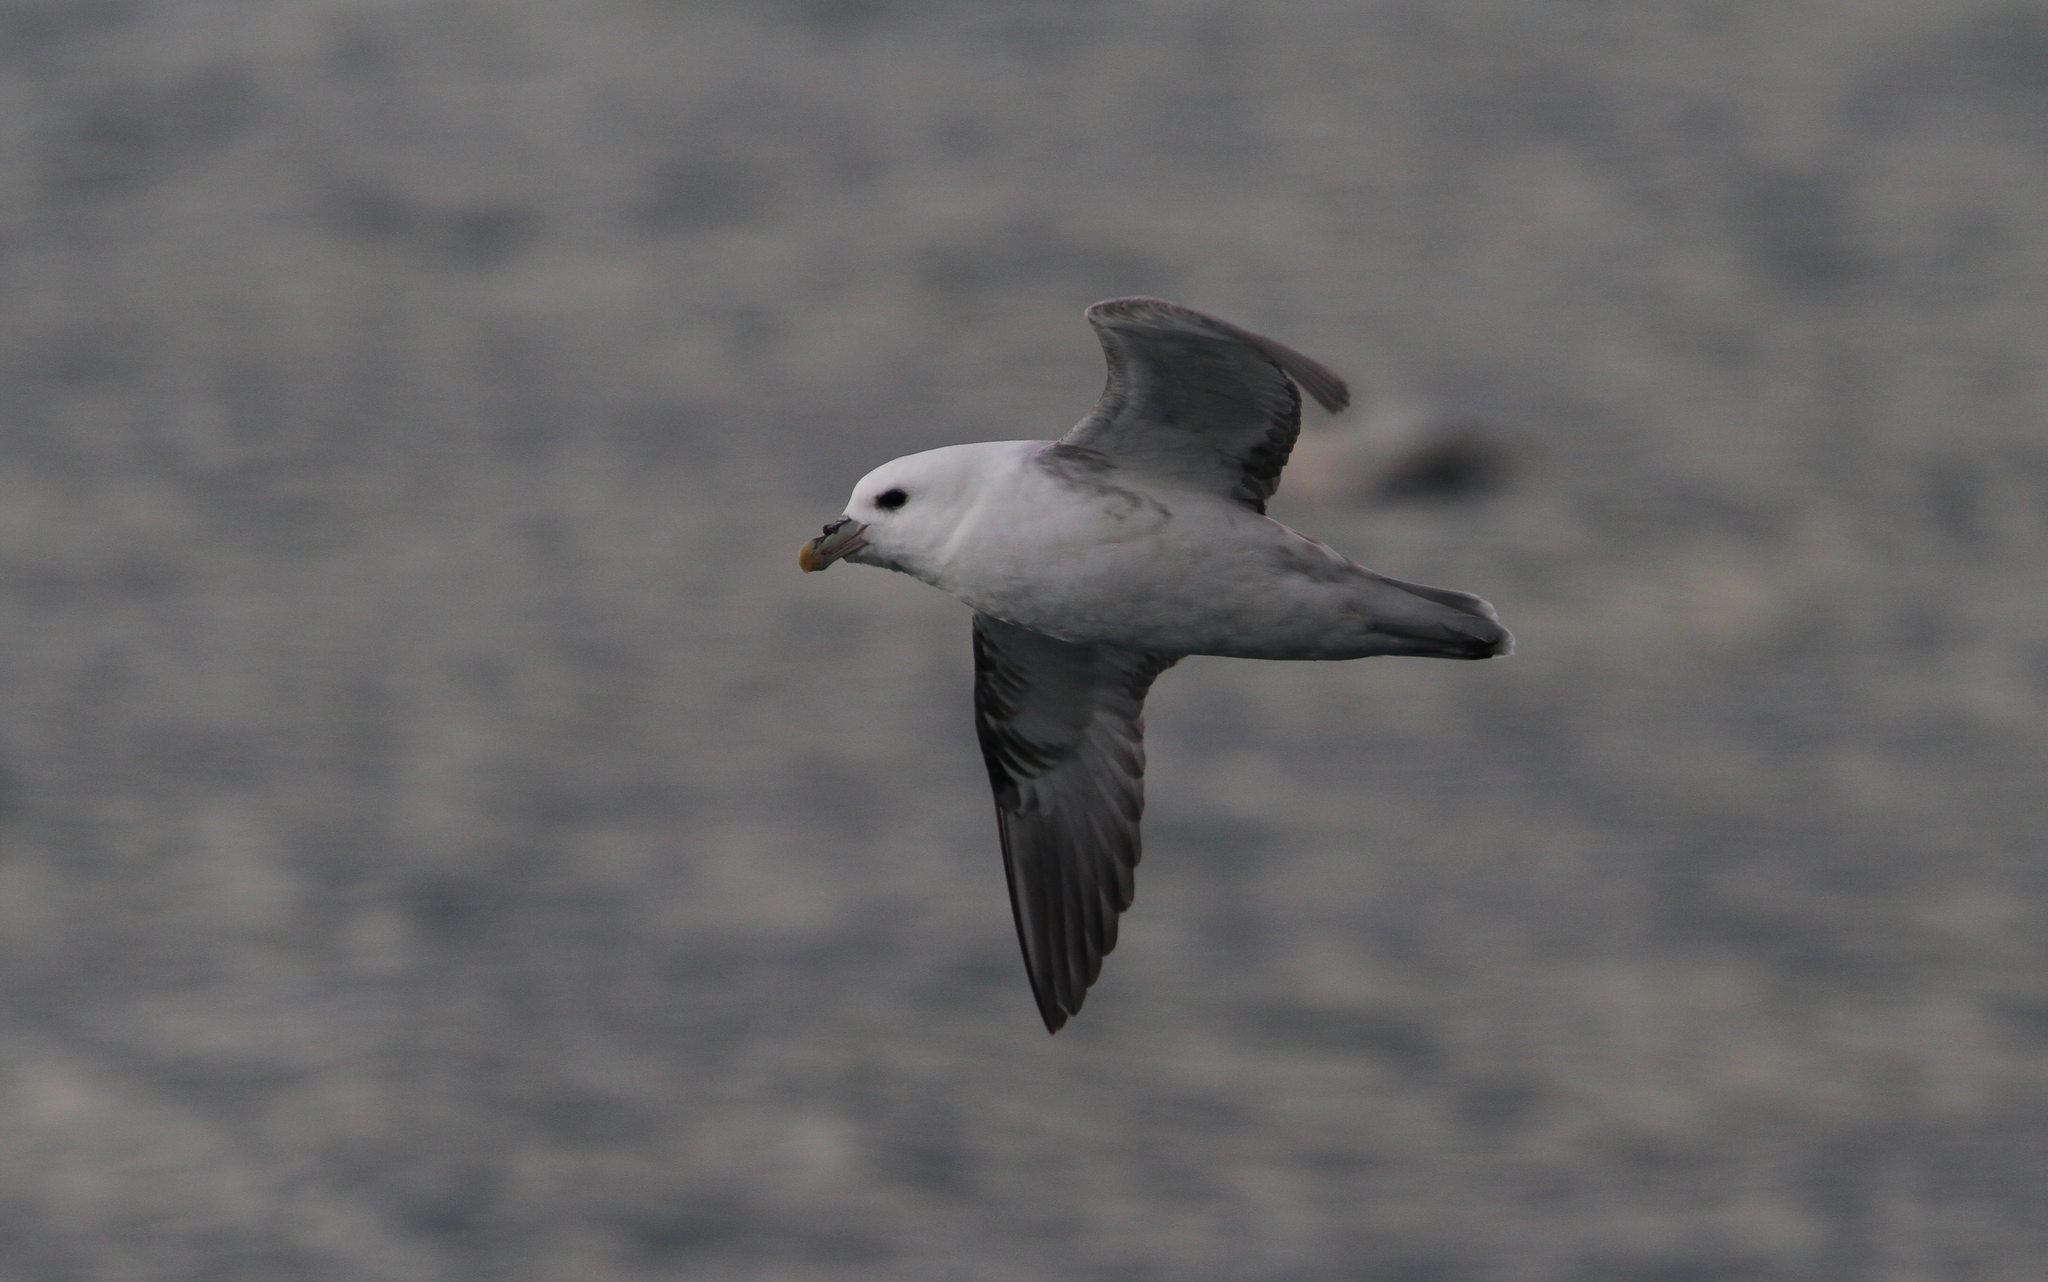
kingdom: Animalia
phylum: Chordata
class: Aves
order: Procellariiformes
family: Procellariidae
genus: Fulmarus
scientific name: Fulmarus glacialis
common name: Northern fulmar
